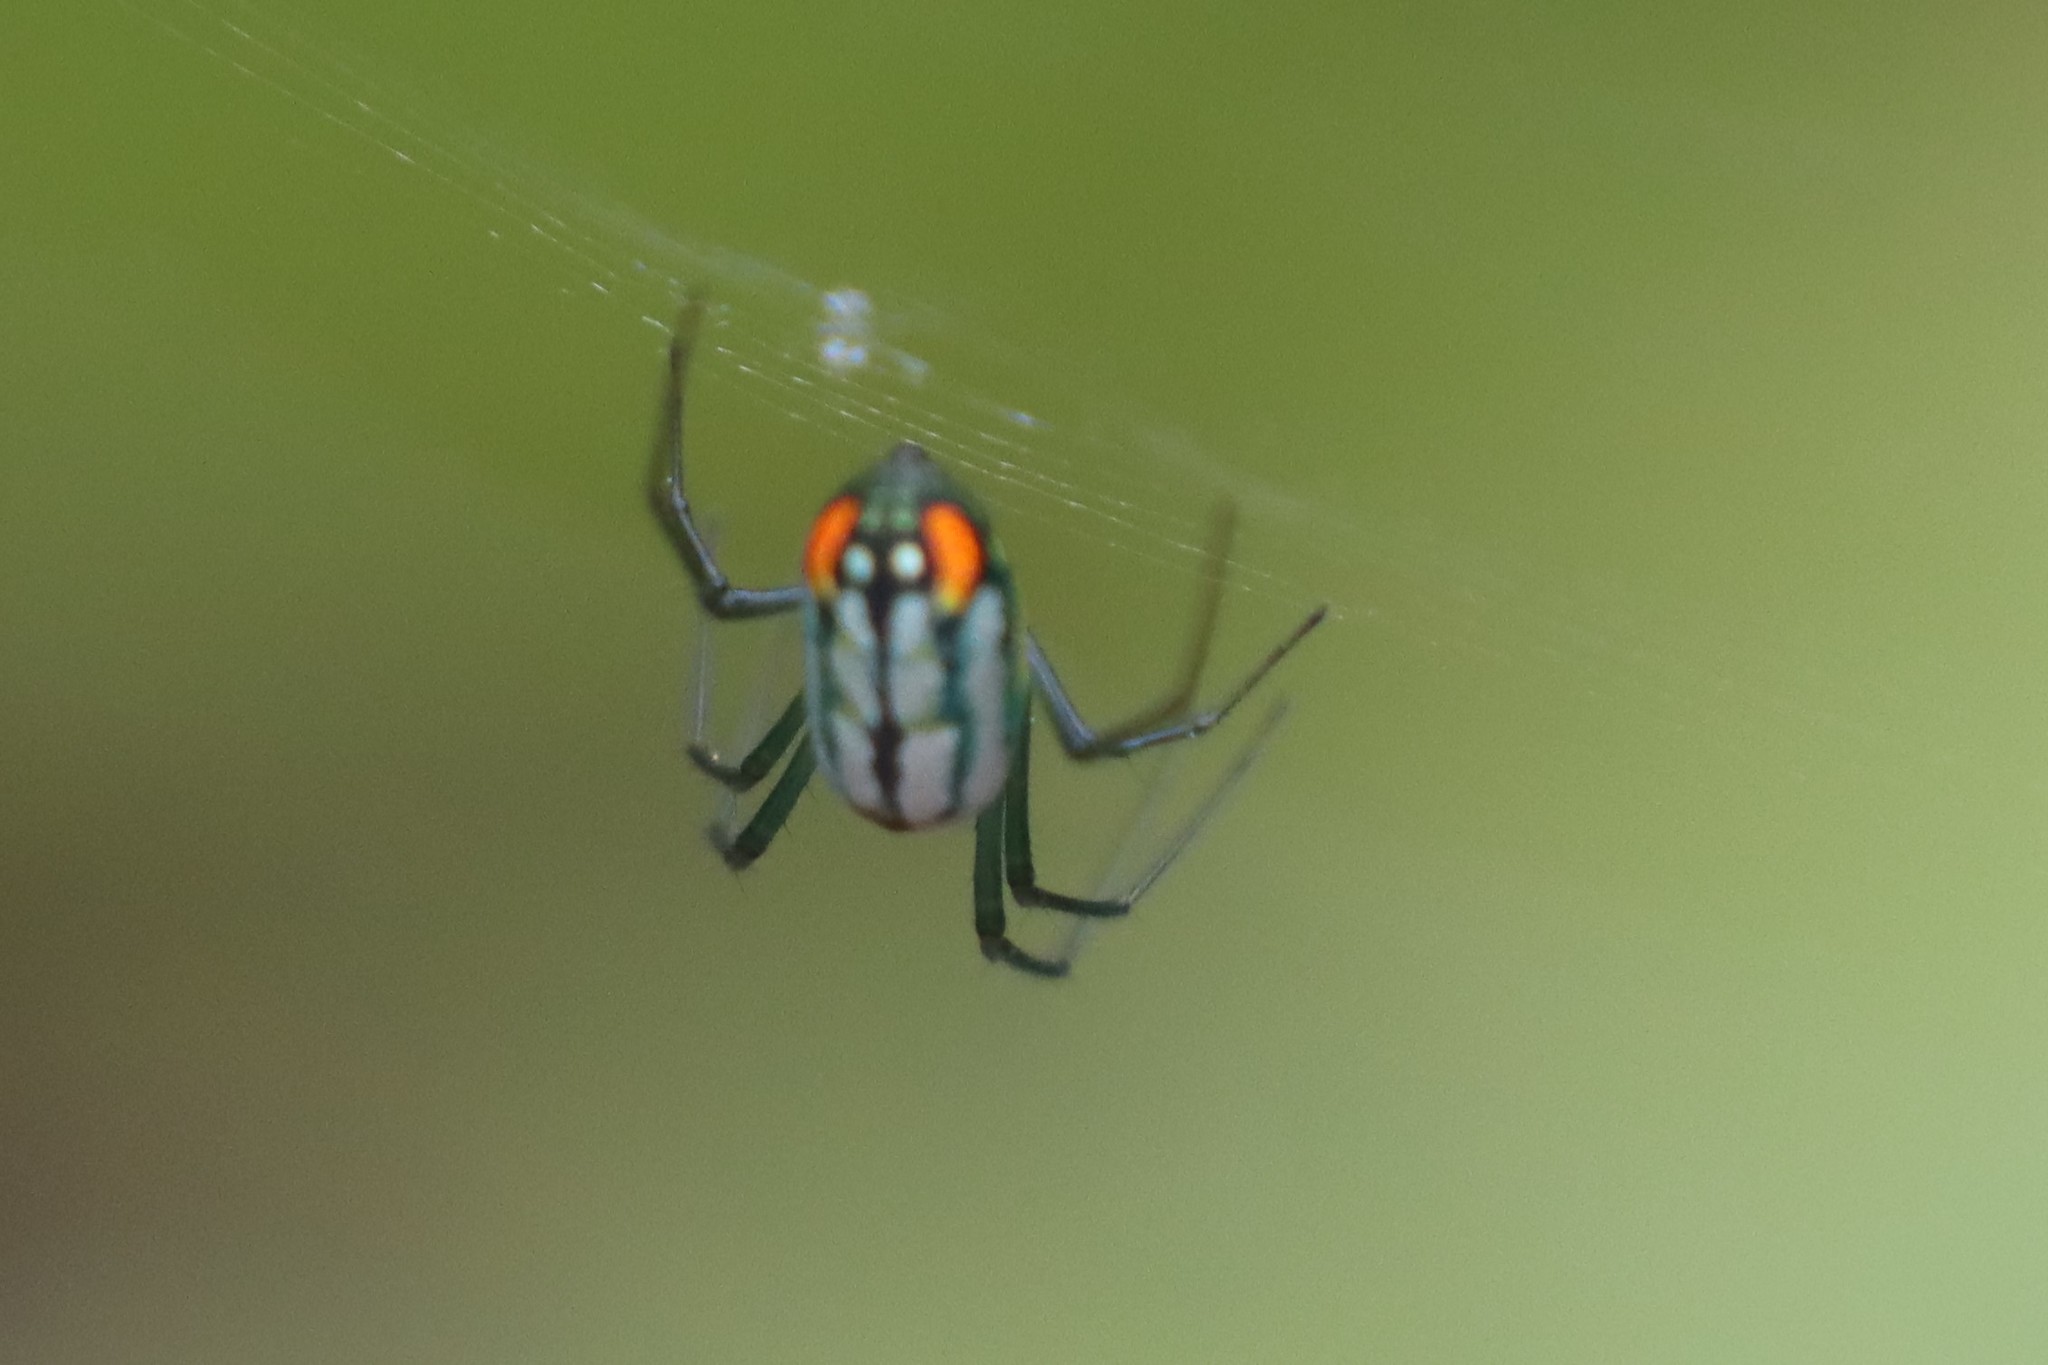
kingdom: Animalia
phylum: Arthropoda
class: Arachnida
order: Araneae
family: Tetragnathidae
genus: Leucauge
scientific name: Leucauge argyrobapta
